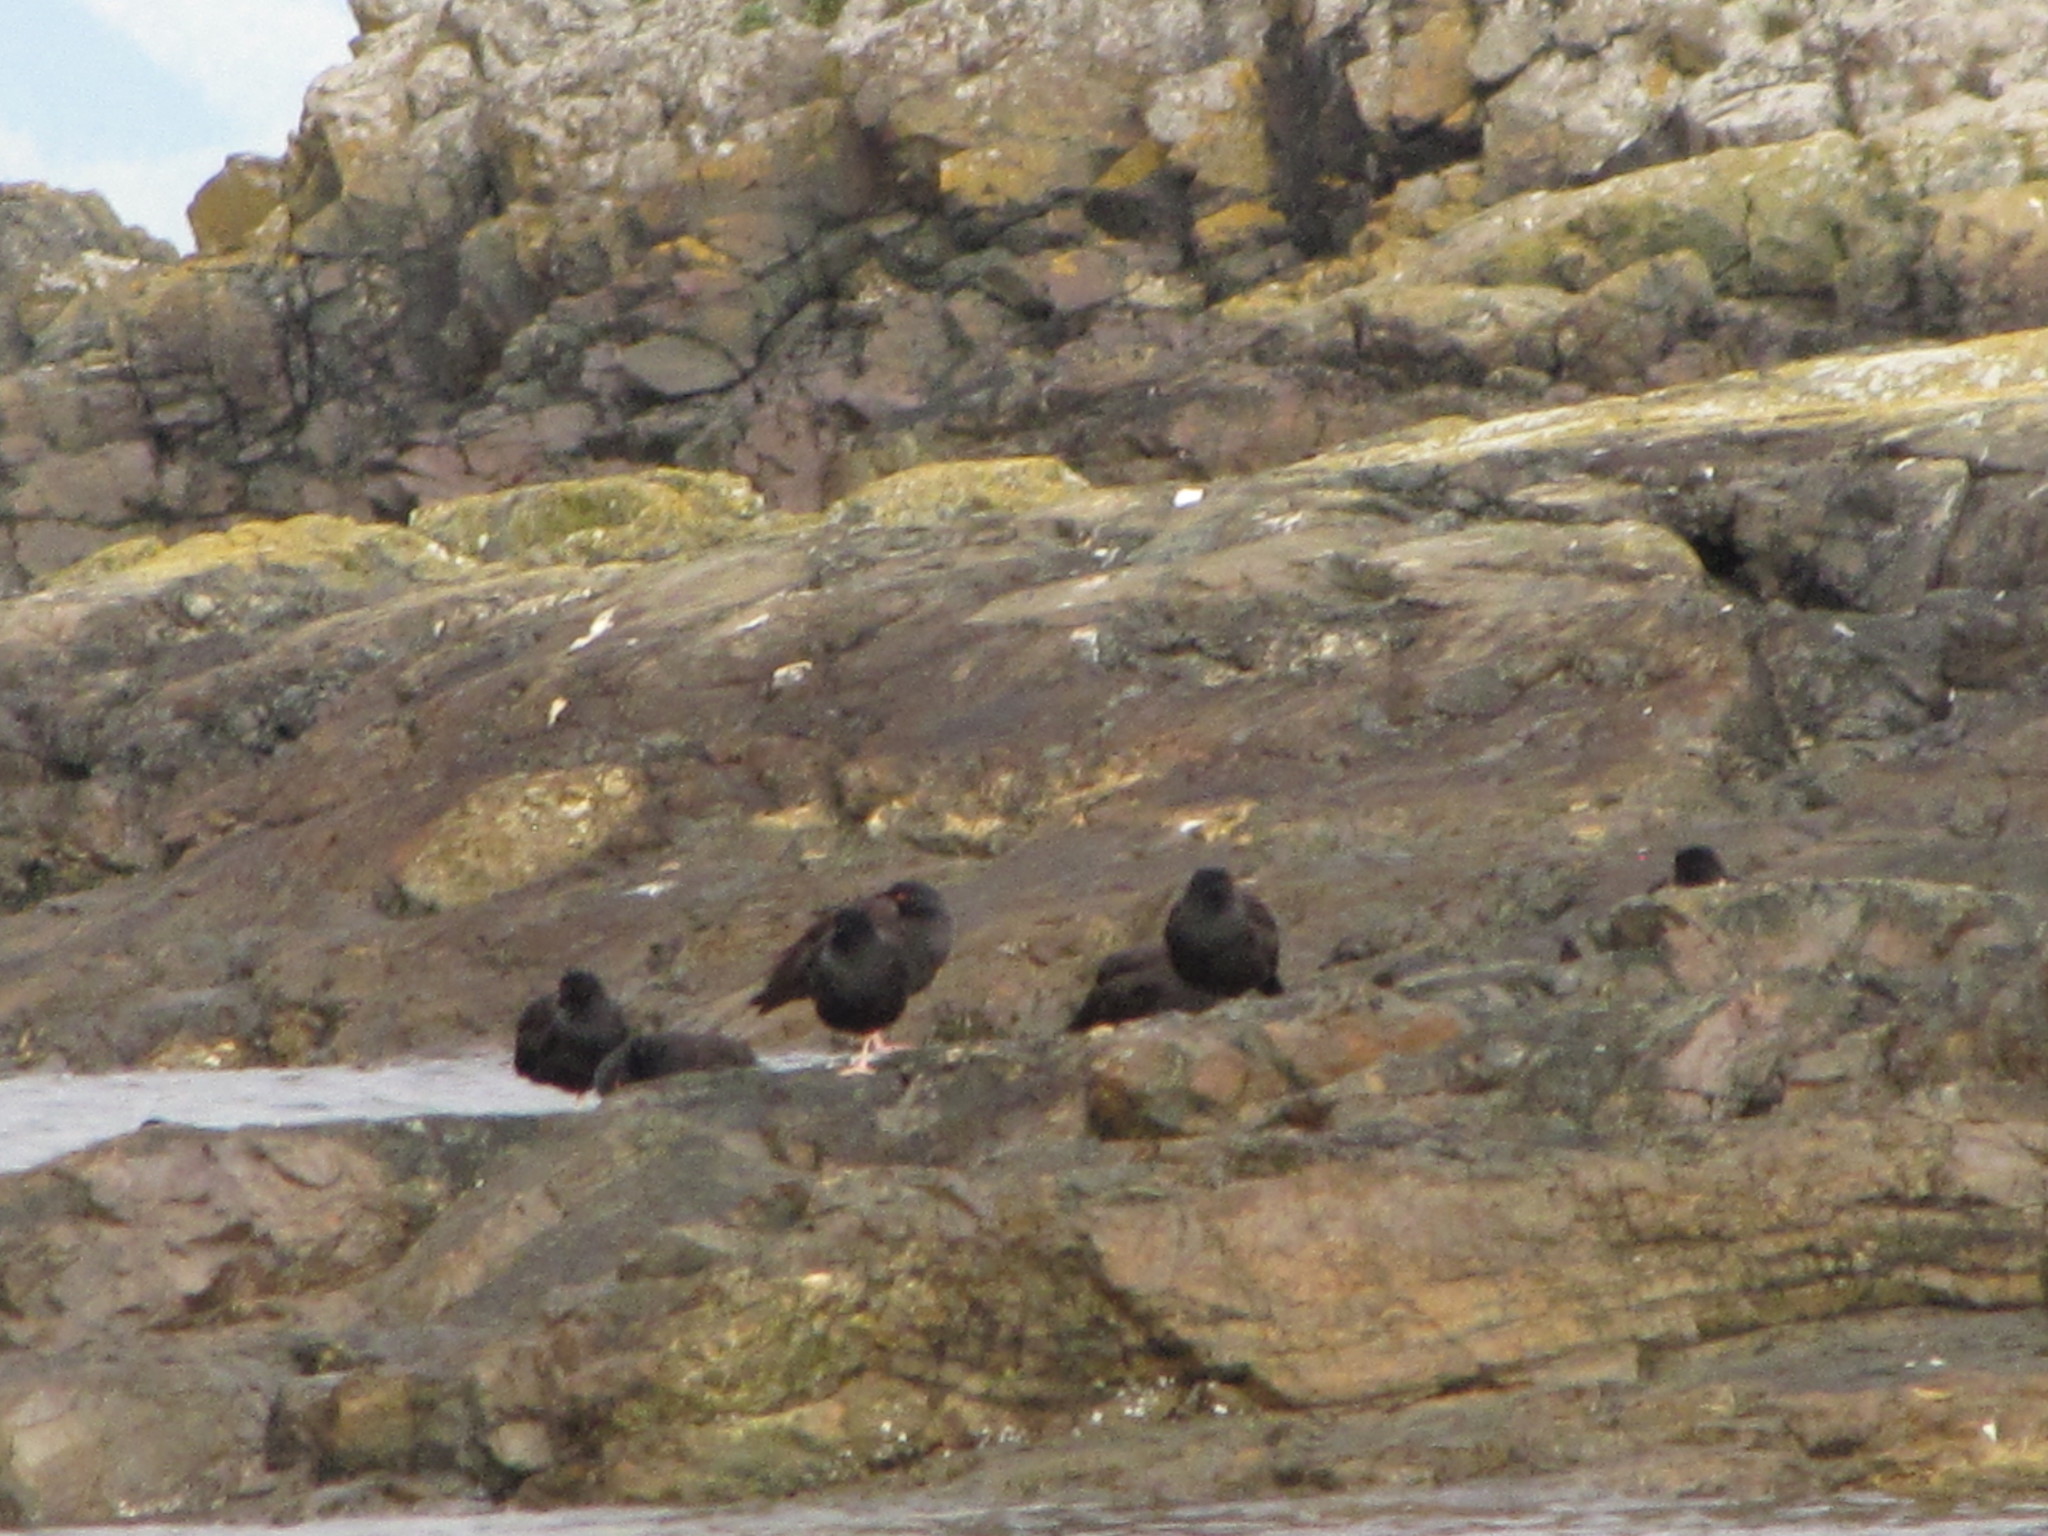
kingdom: Animalia
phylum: Chordata
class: Aves
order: Charadriiformes
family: Haematopodidae
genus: Haematopus
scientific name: Haematopus bachmani
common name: Black oystercatcher
